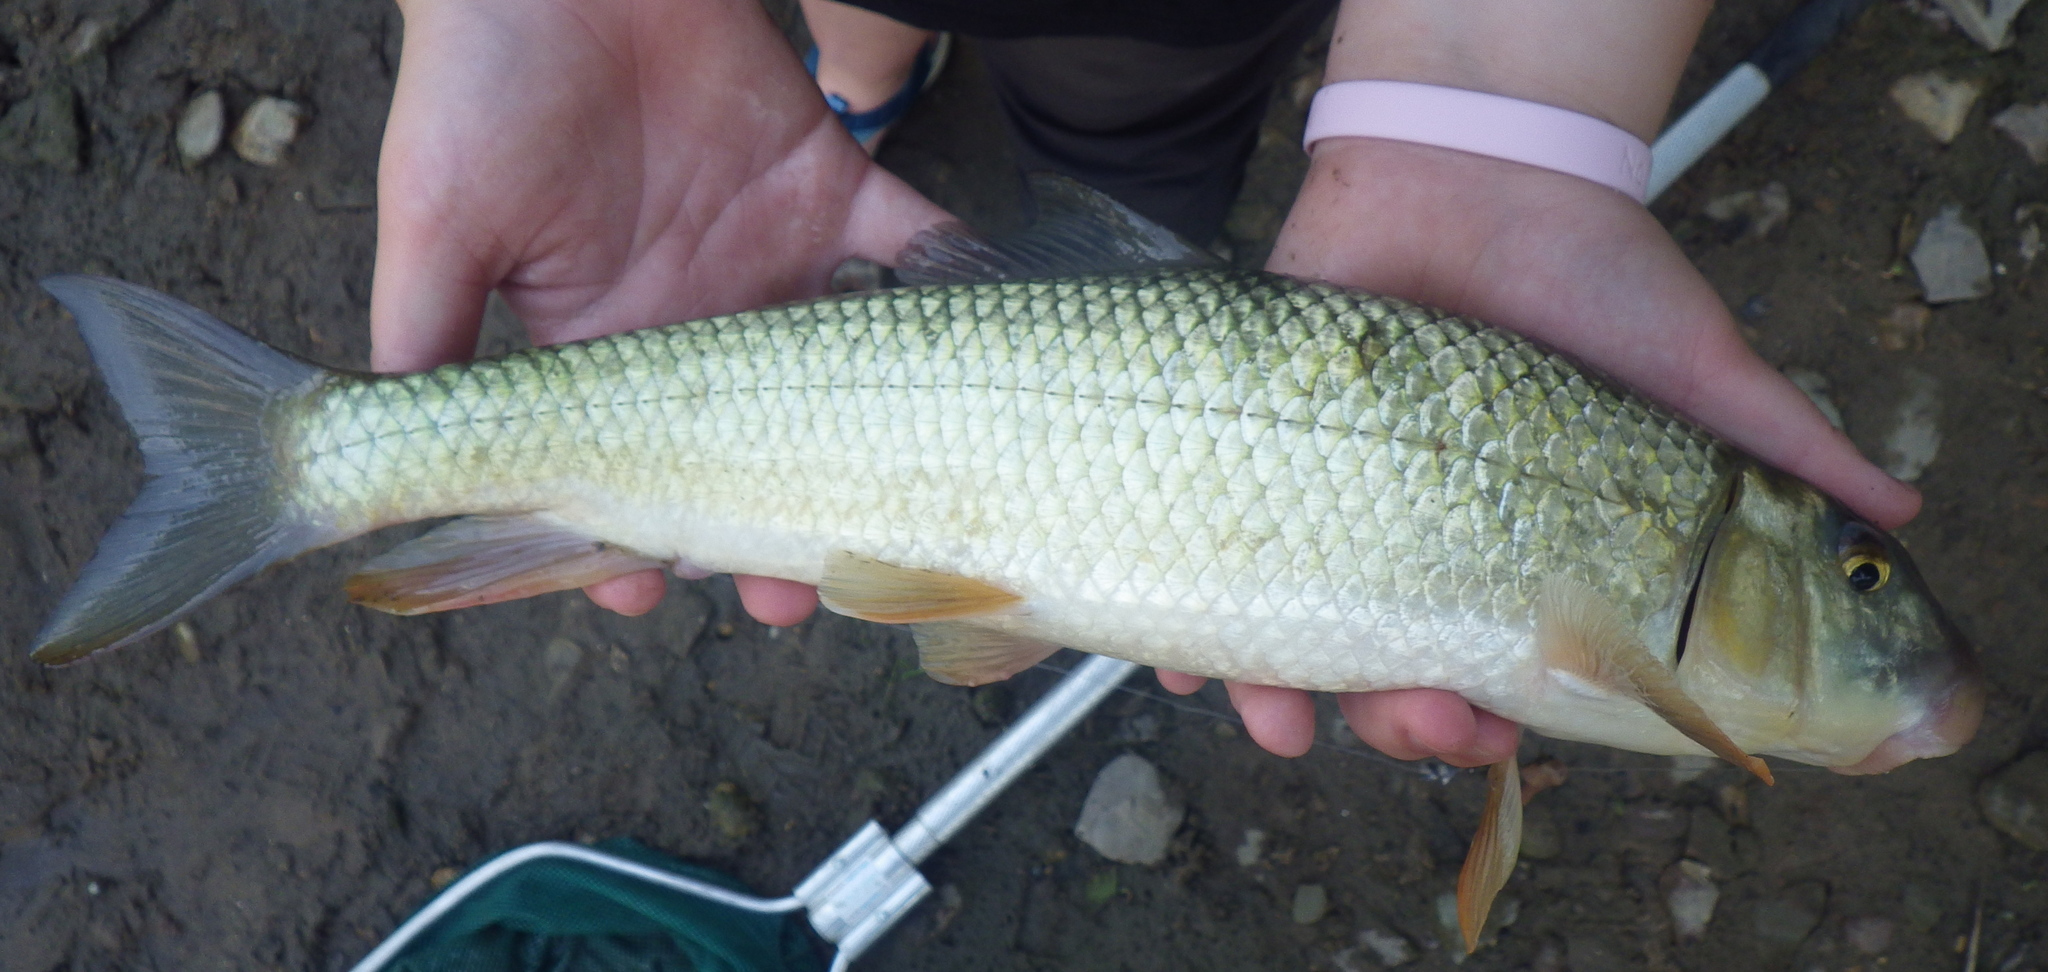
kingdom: Animalia
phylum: Chordata
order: Cypriniformes
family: Catostomidae
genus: Moxostoma
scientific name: Moxostoma erythrurum
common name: Golden redhorse
